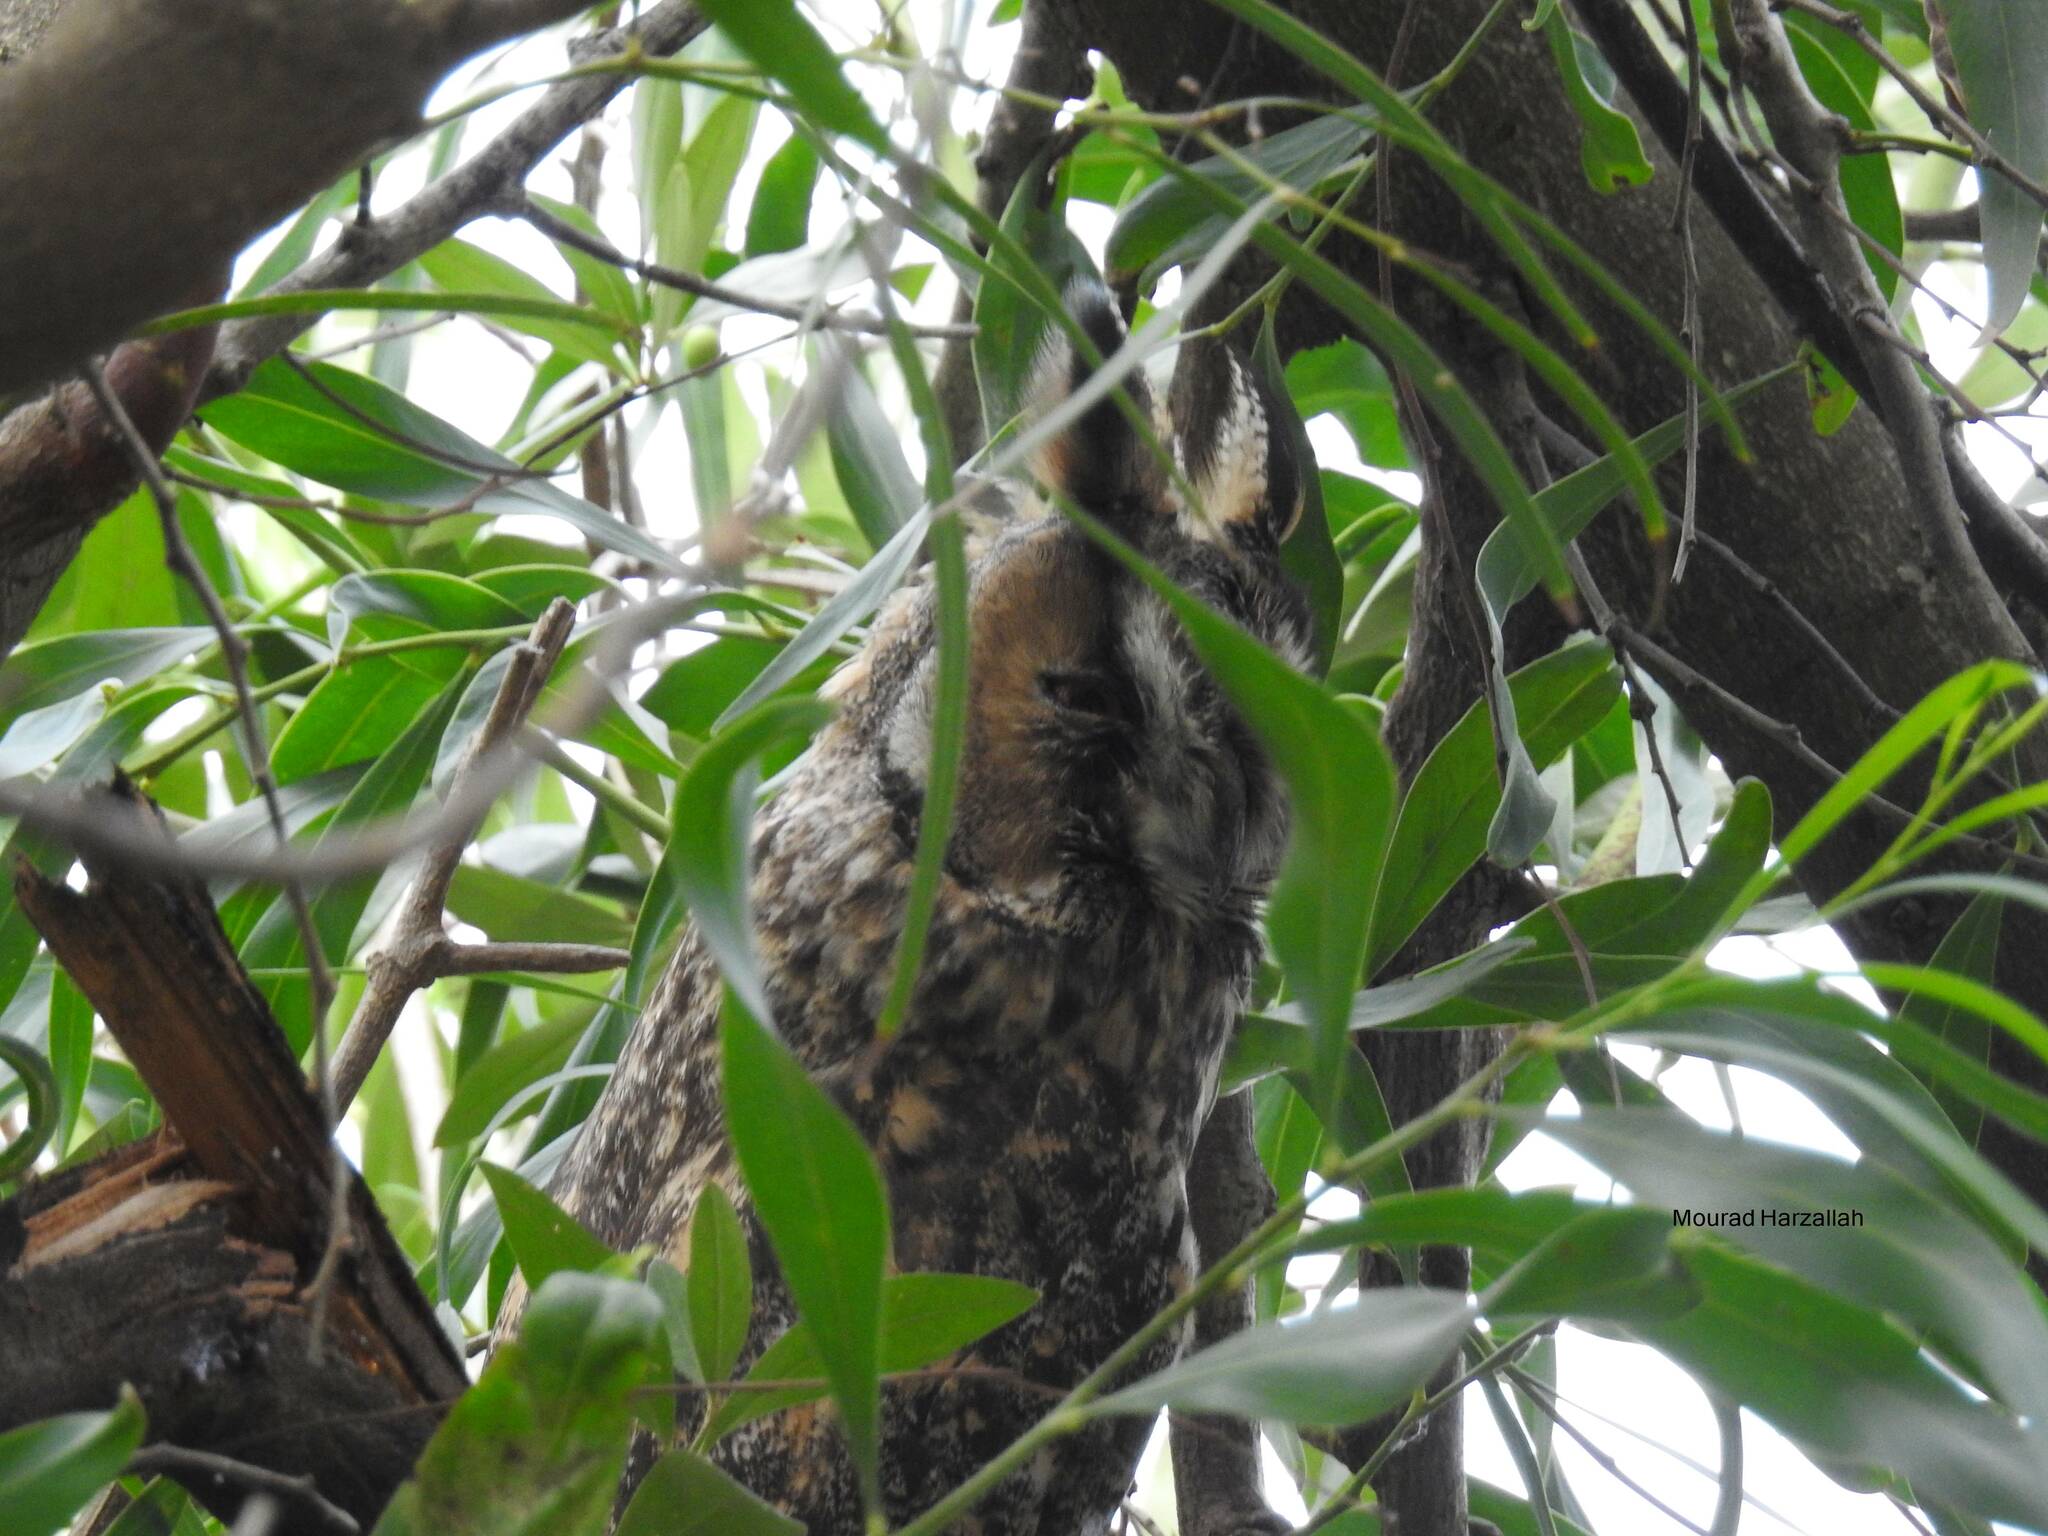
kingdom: Animalia
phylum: Chordata
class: Aves
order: Strigiformes
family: Strigidae
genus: Asio
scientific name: Asio otus
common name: Long-eared owl
